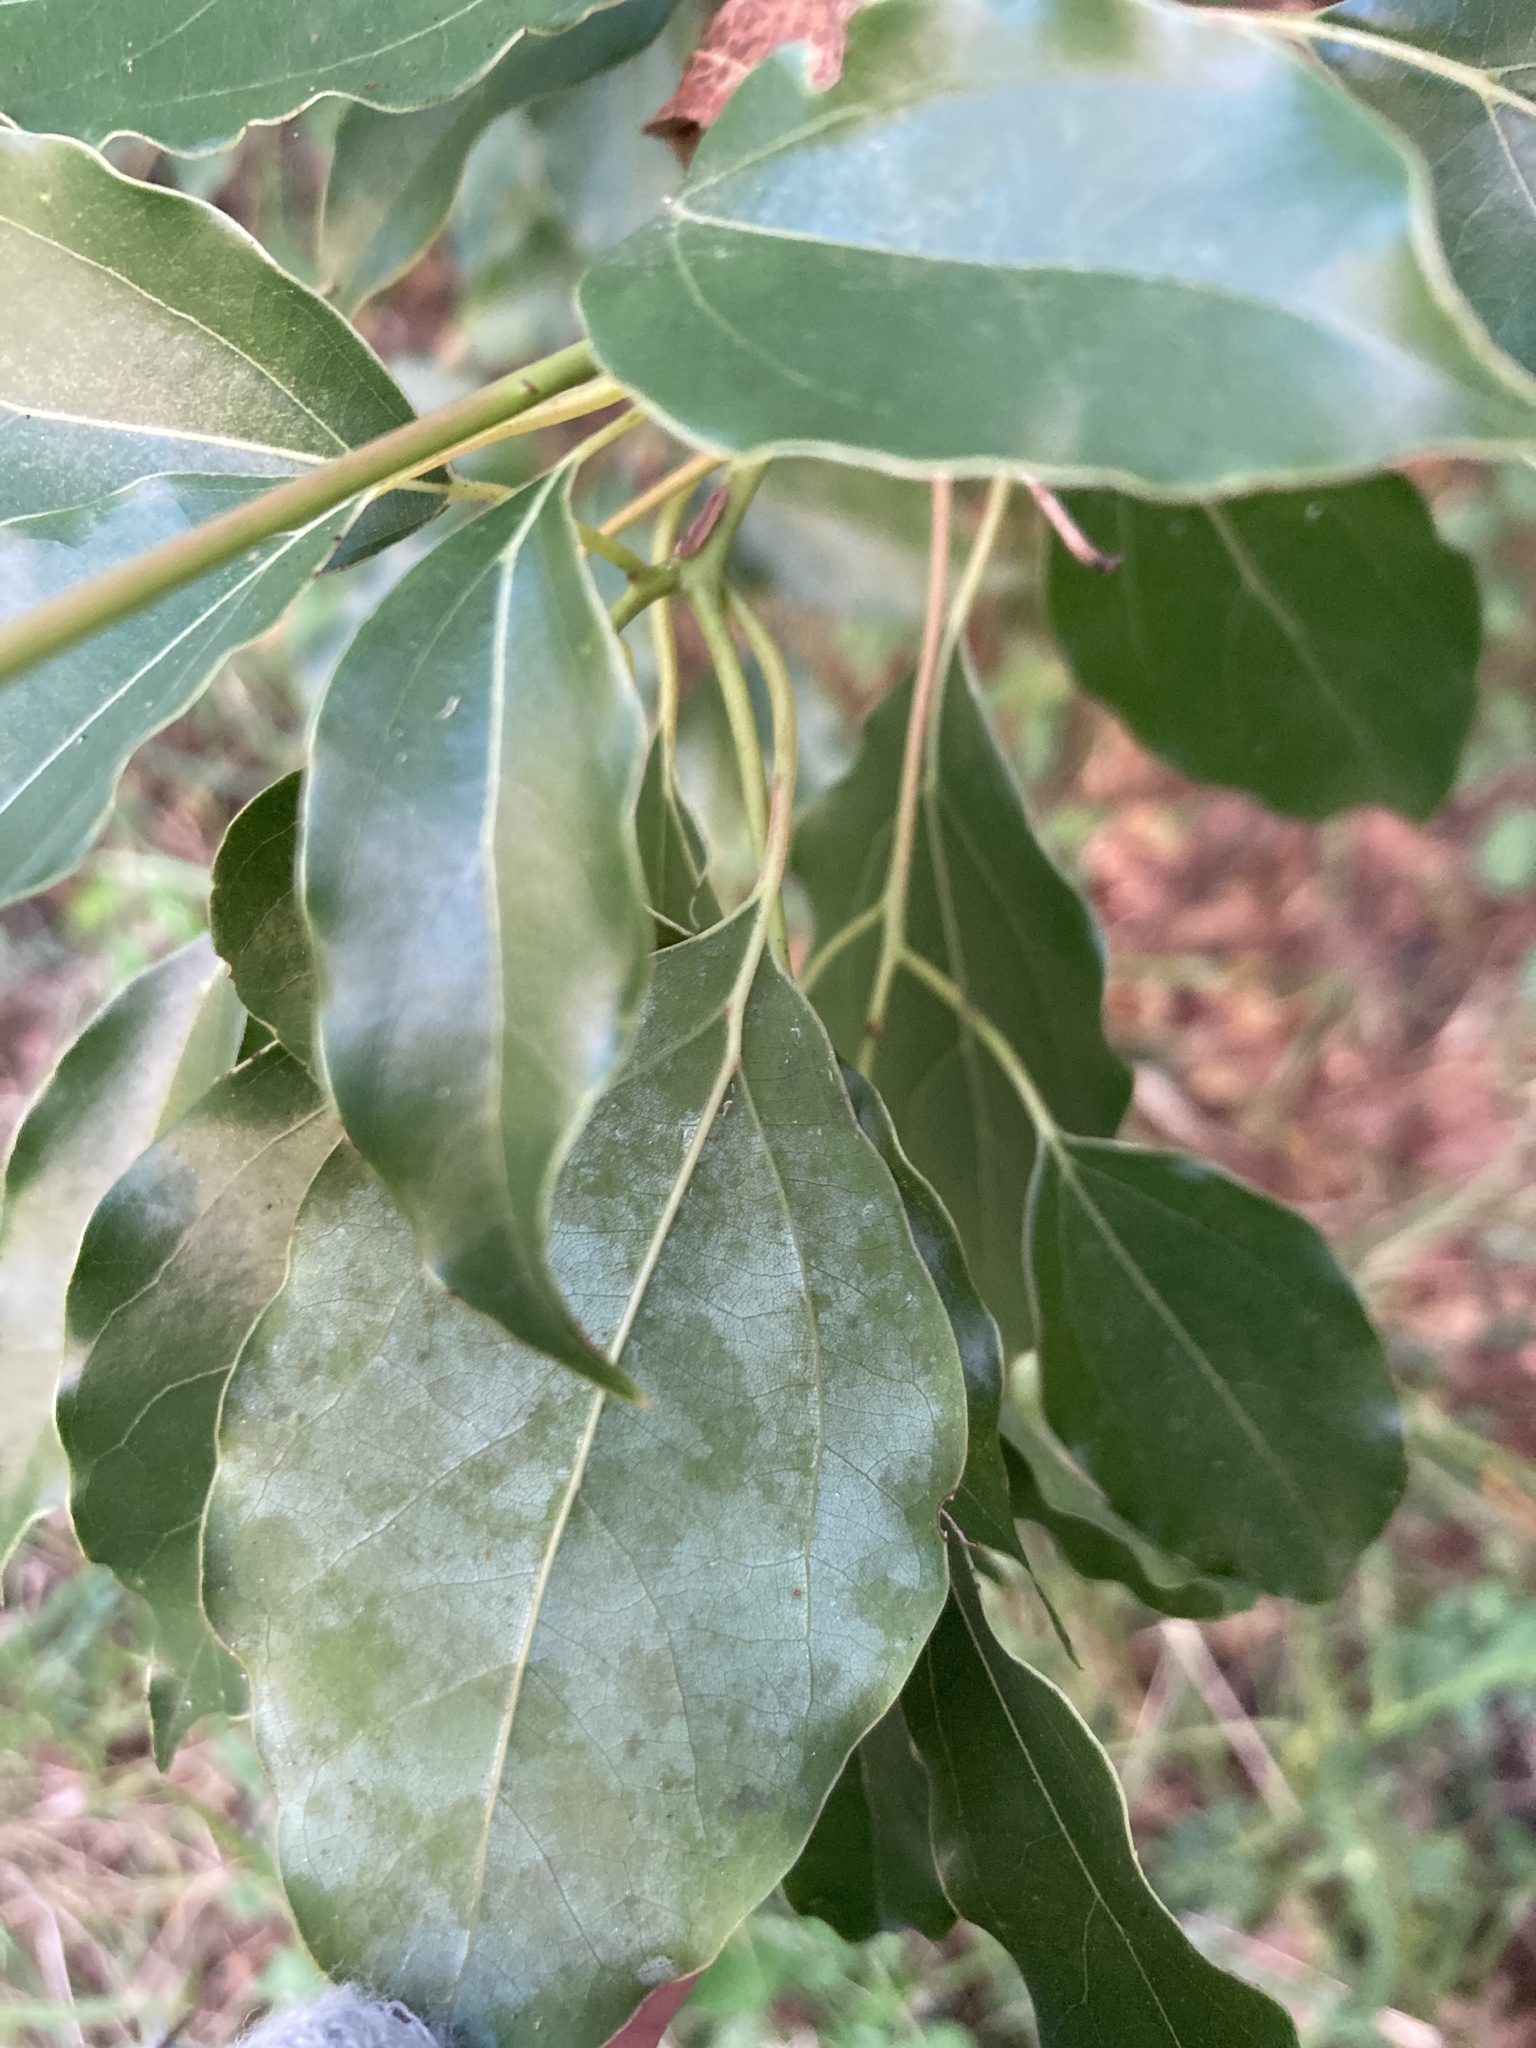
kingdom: Plantae
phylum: Tracheophyta
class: Magnoliopsida
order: Laurales
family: Lauraceae
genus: Cinnamomum
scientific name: Cinnamomum camphora
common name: Camphortree
